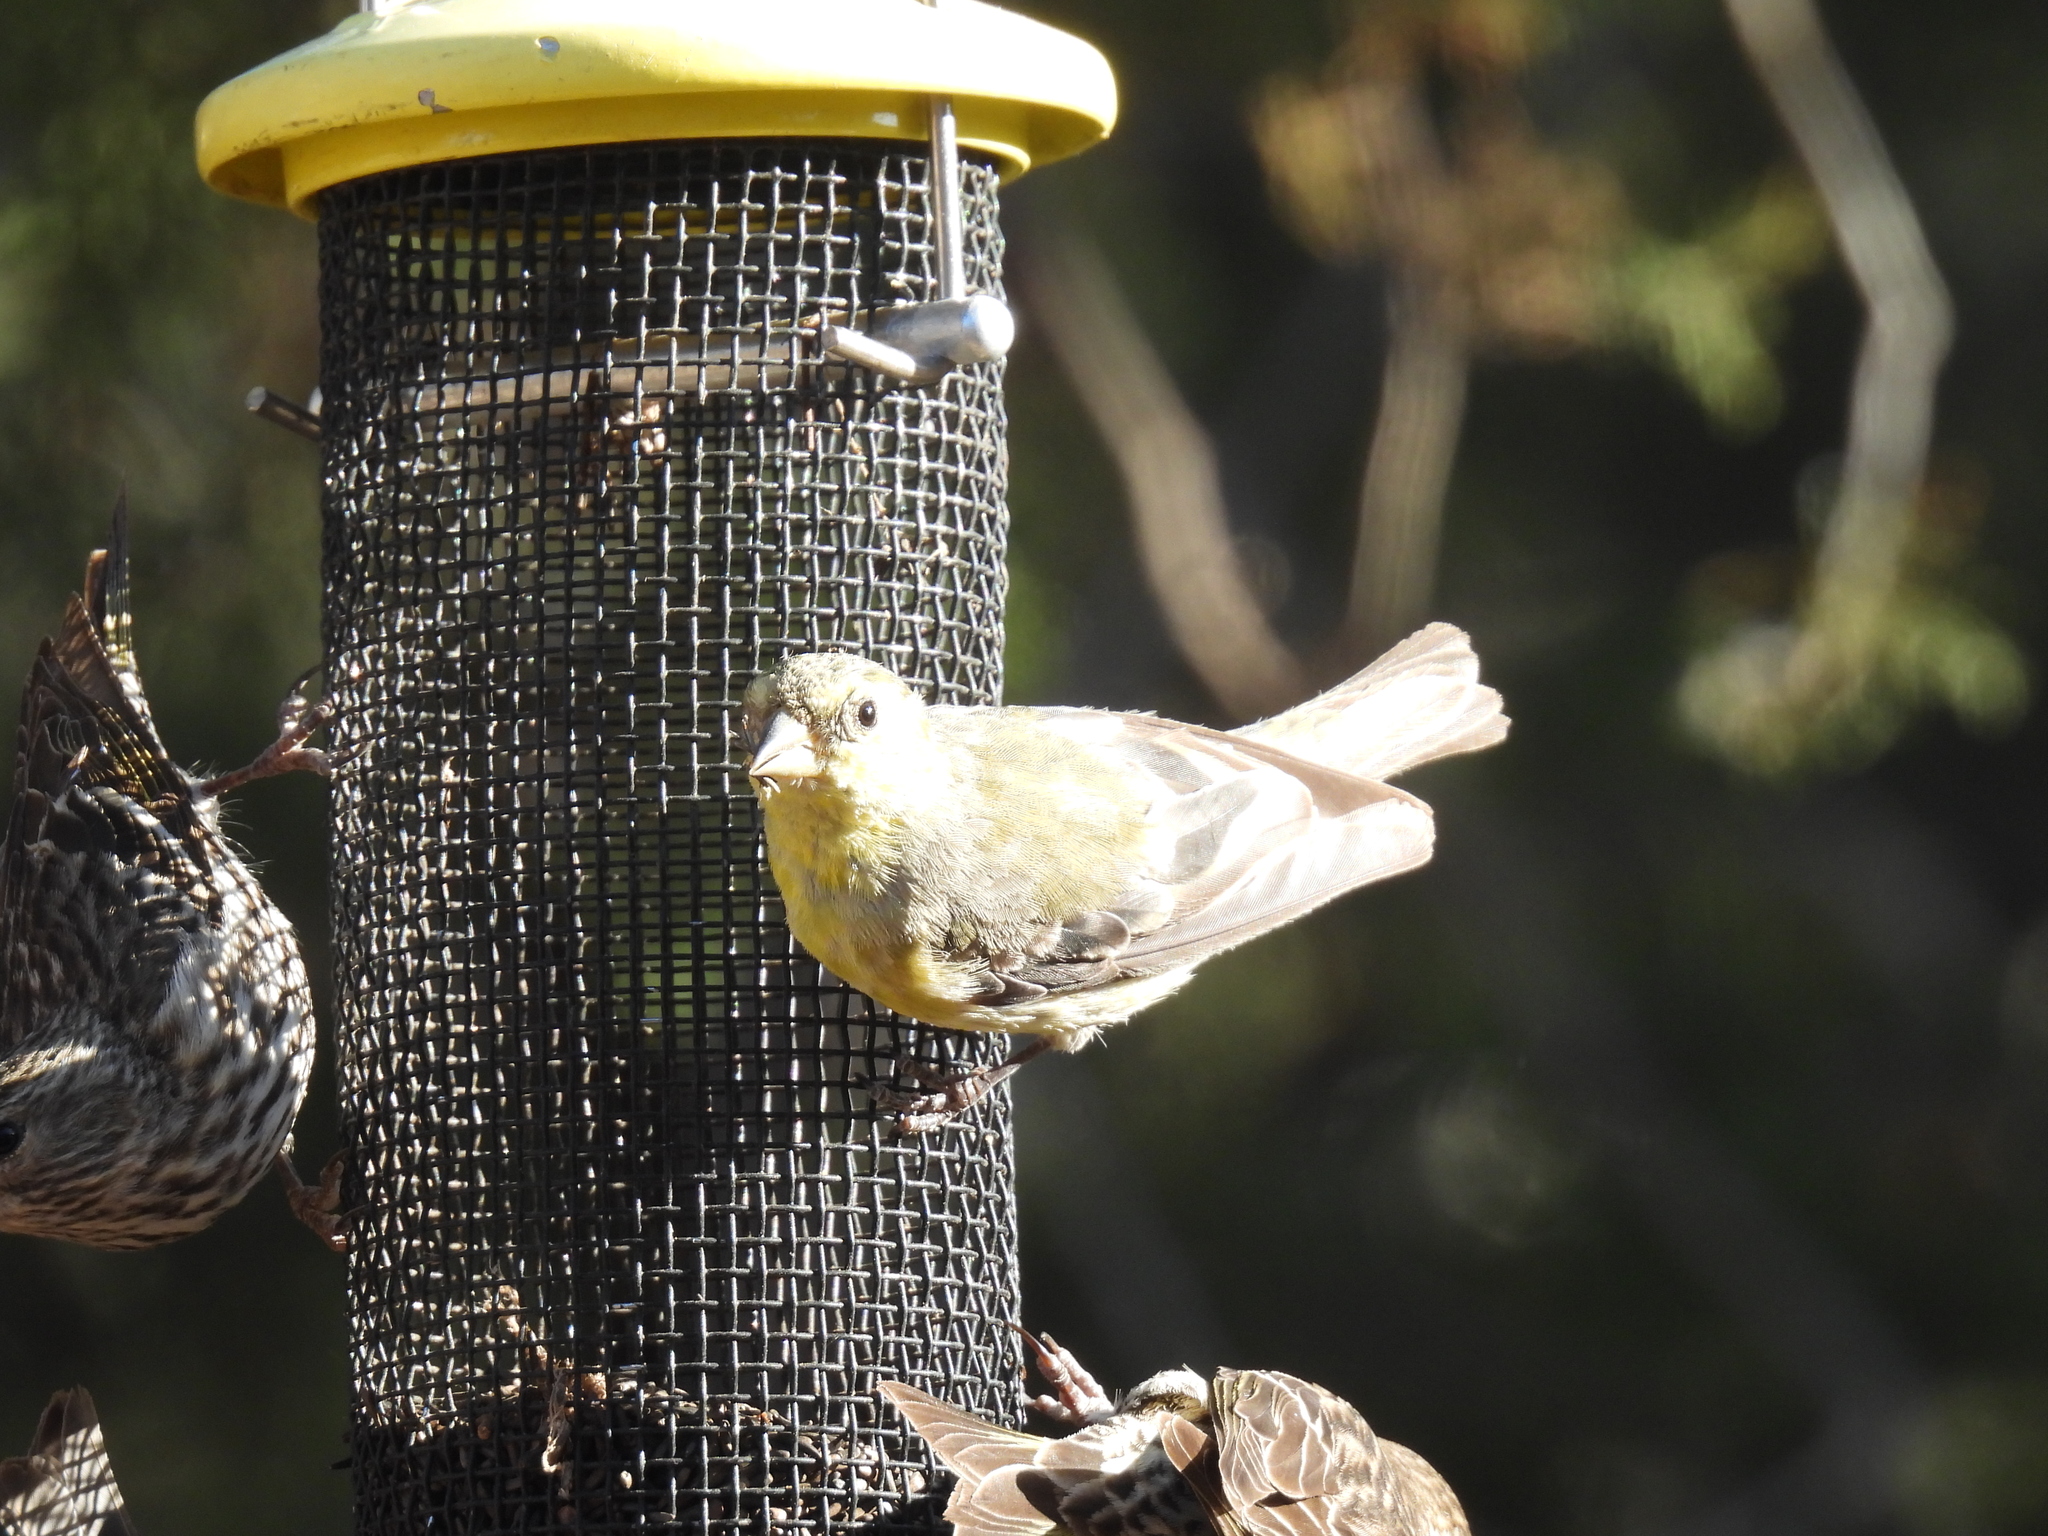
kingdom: Animalia
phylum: Chordata
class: Aves
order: Passeriformes
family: Fringillidae
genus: Spinus
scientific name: Spinus psaltria
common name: Lesser goldfinch
